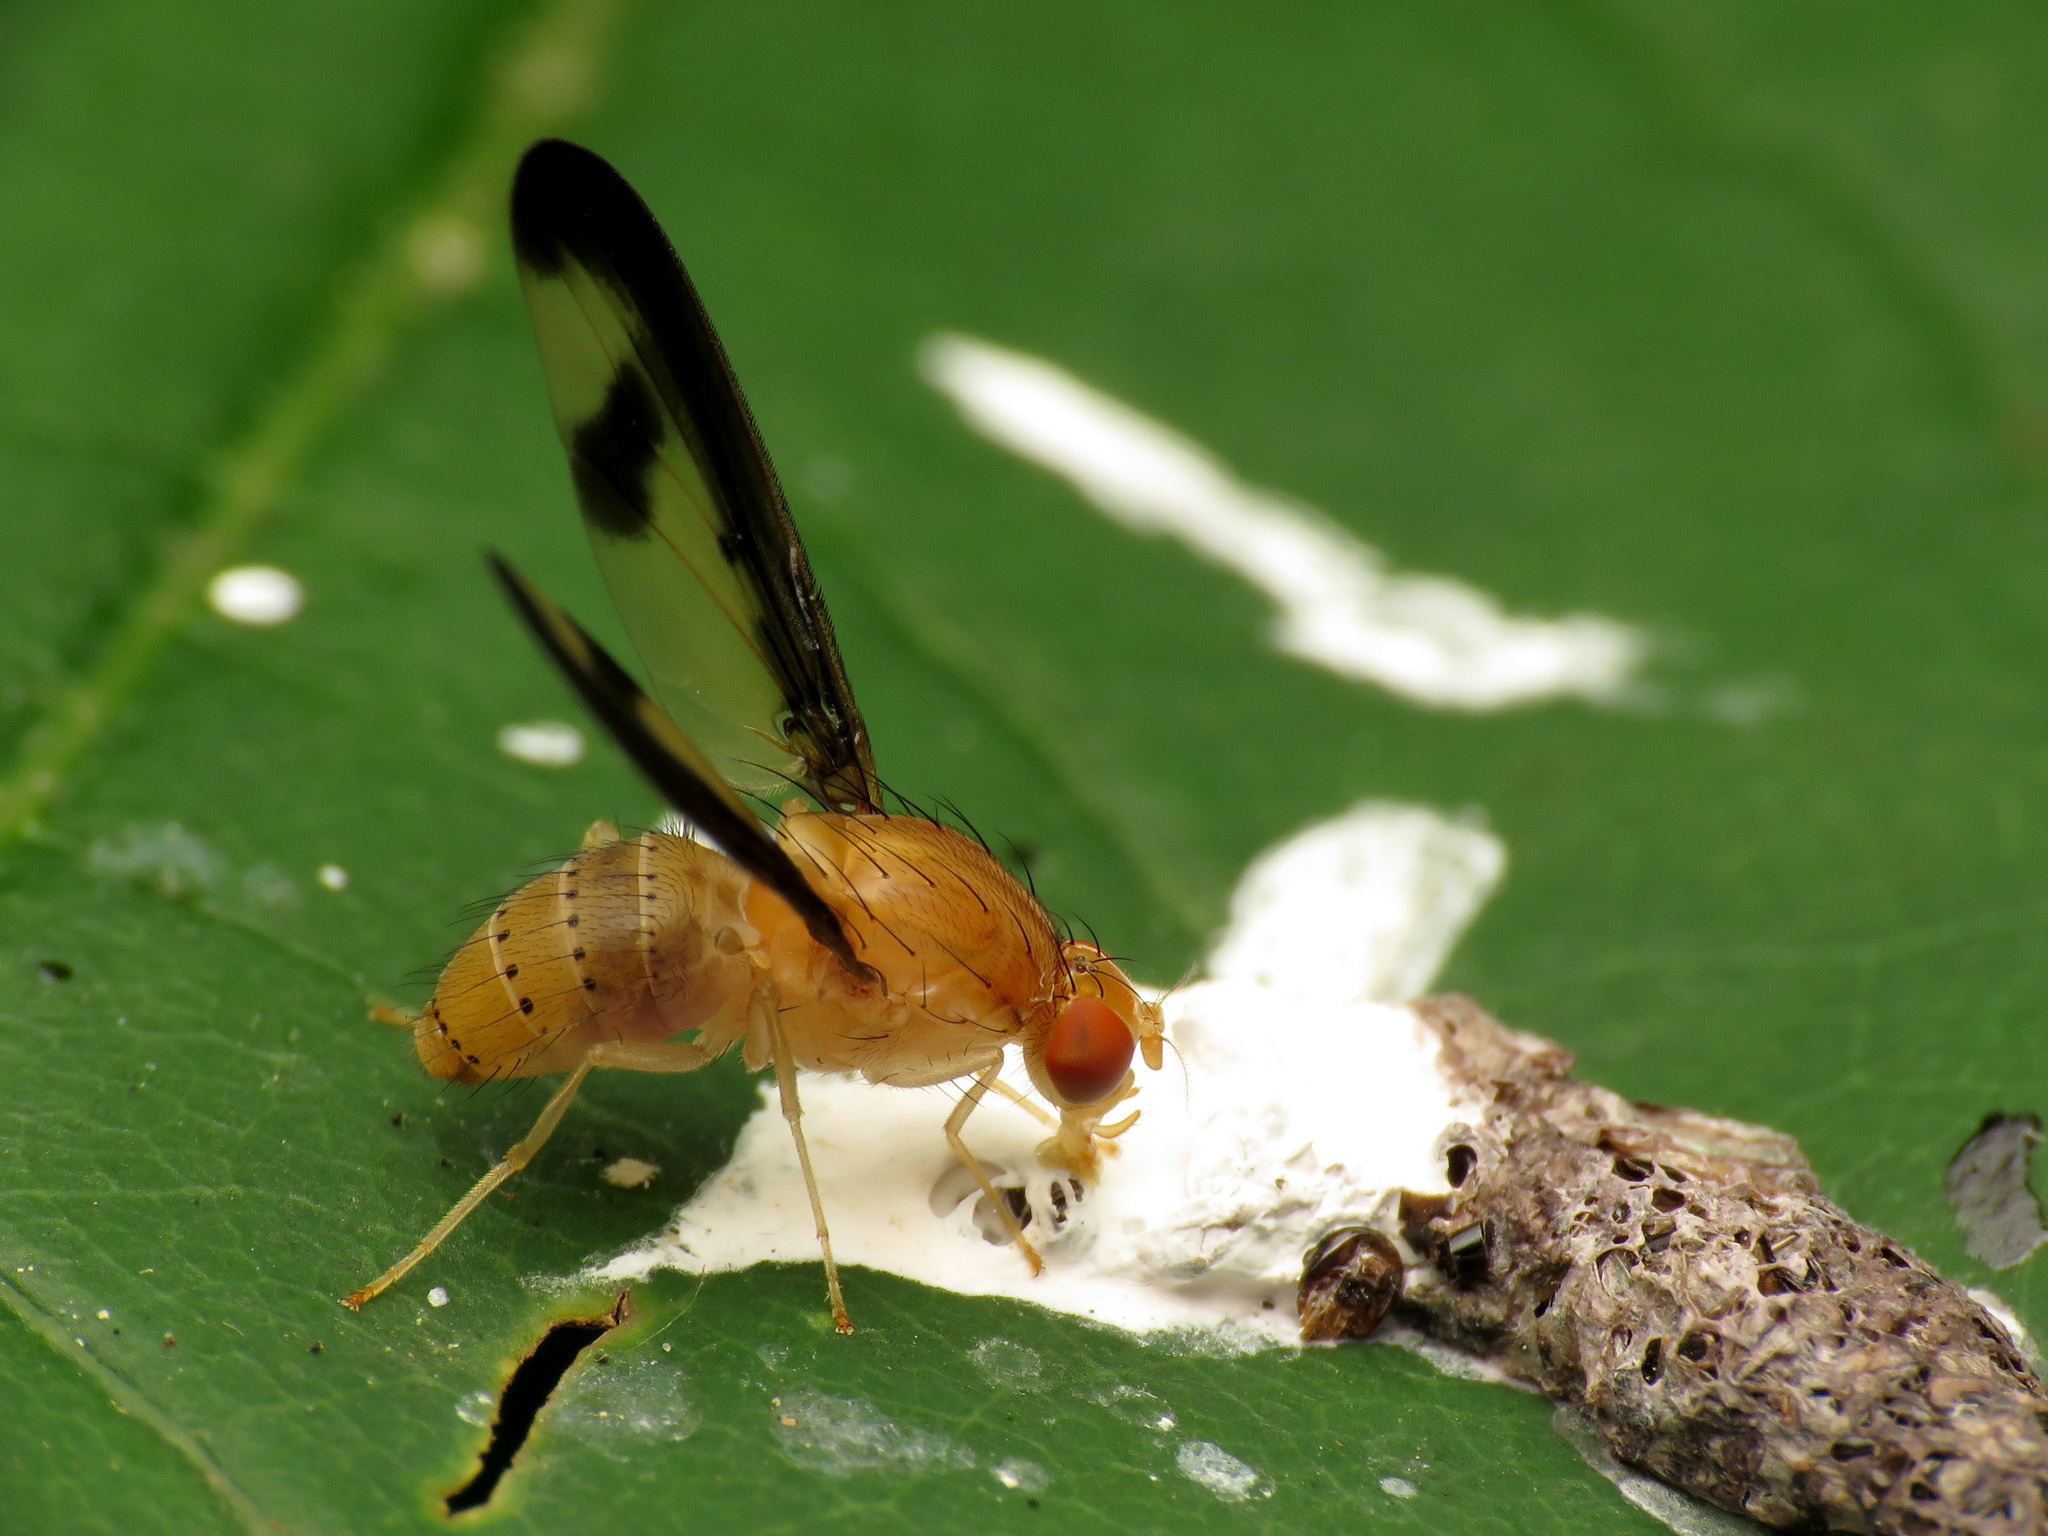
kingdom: Animalia
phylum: Arthropoda
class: Insecta
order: Diptera
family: Pallopteridae
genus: Toxonevra
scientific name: Toxonevra superba
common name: Antlered flutter fly
